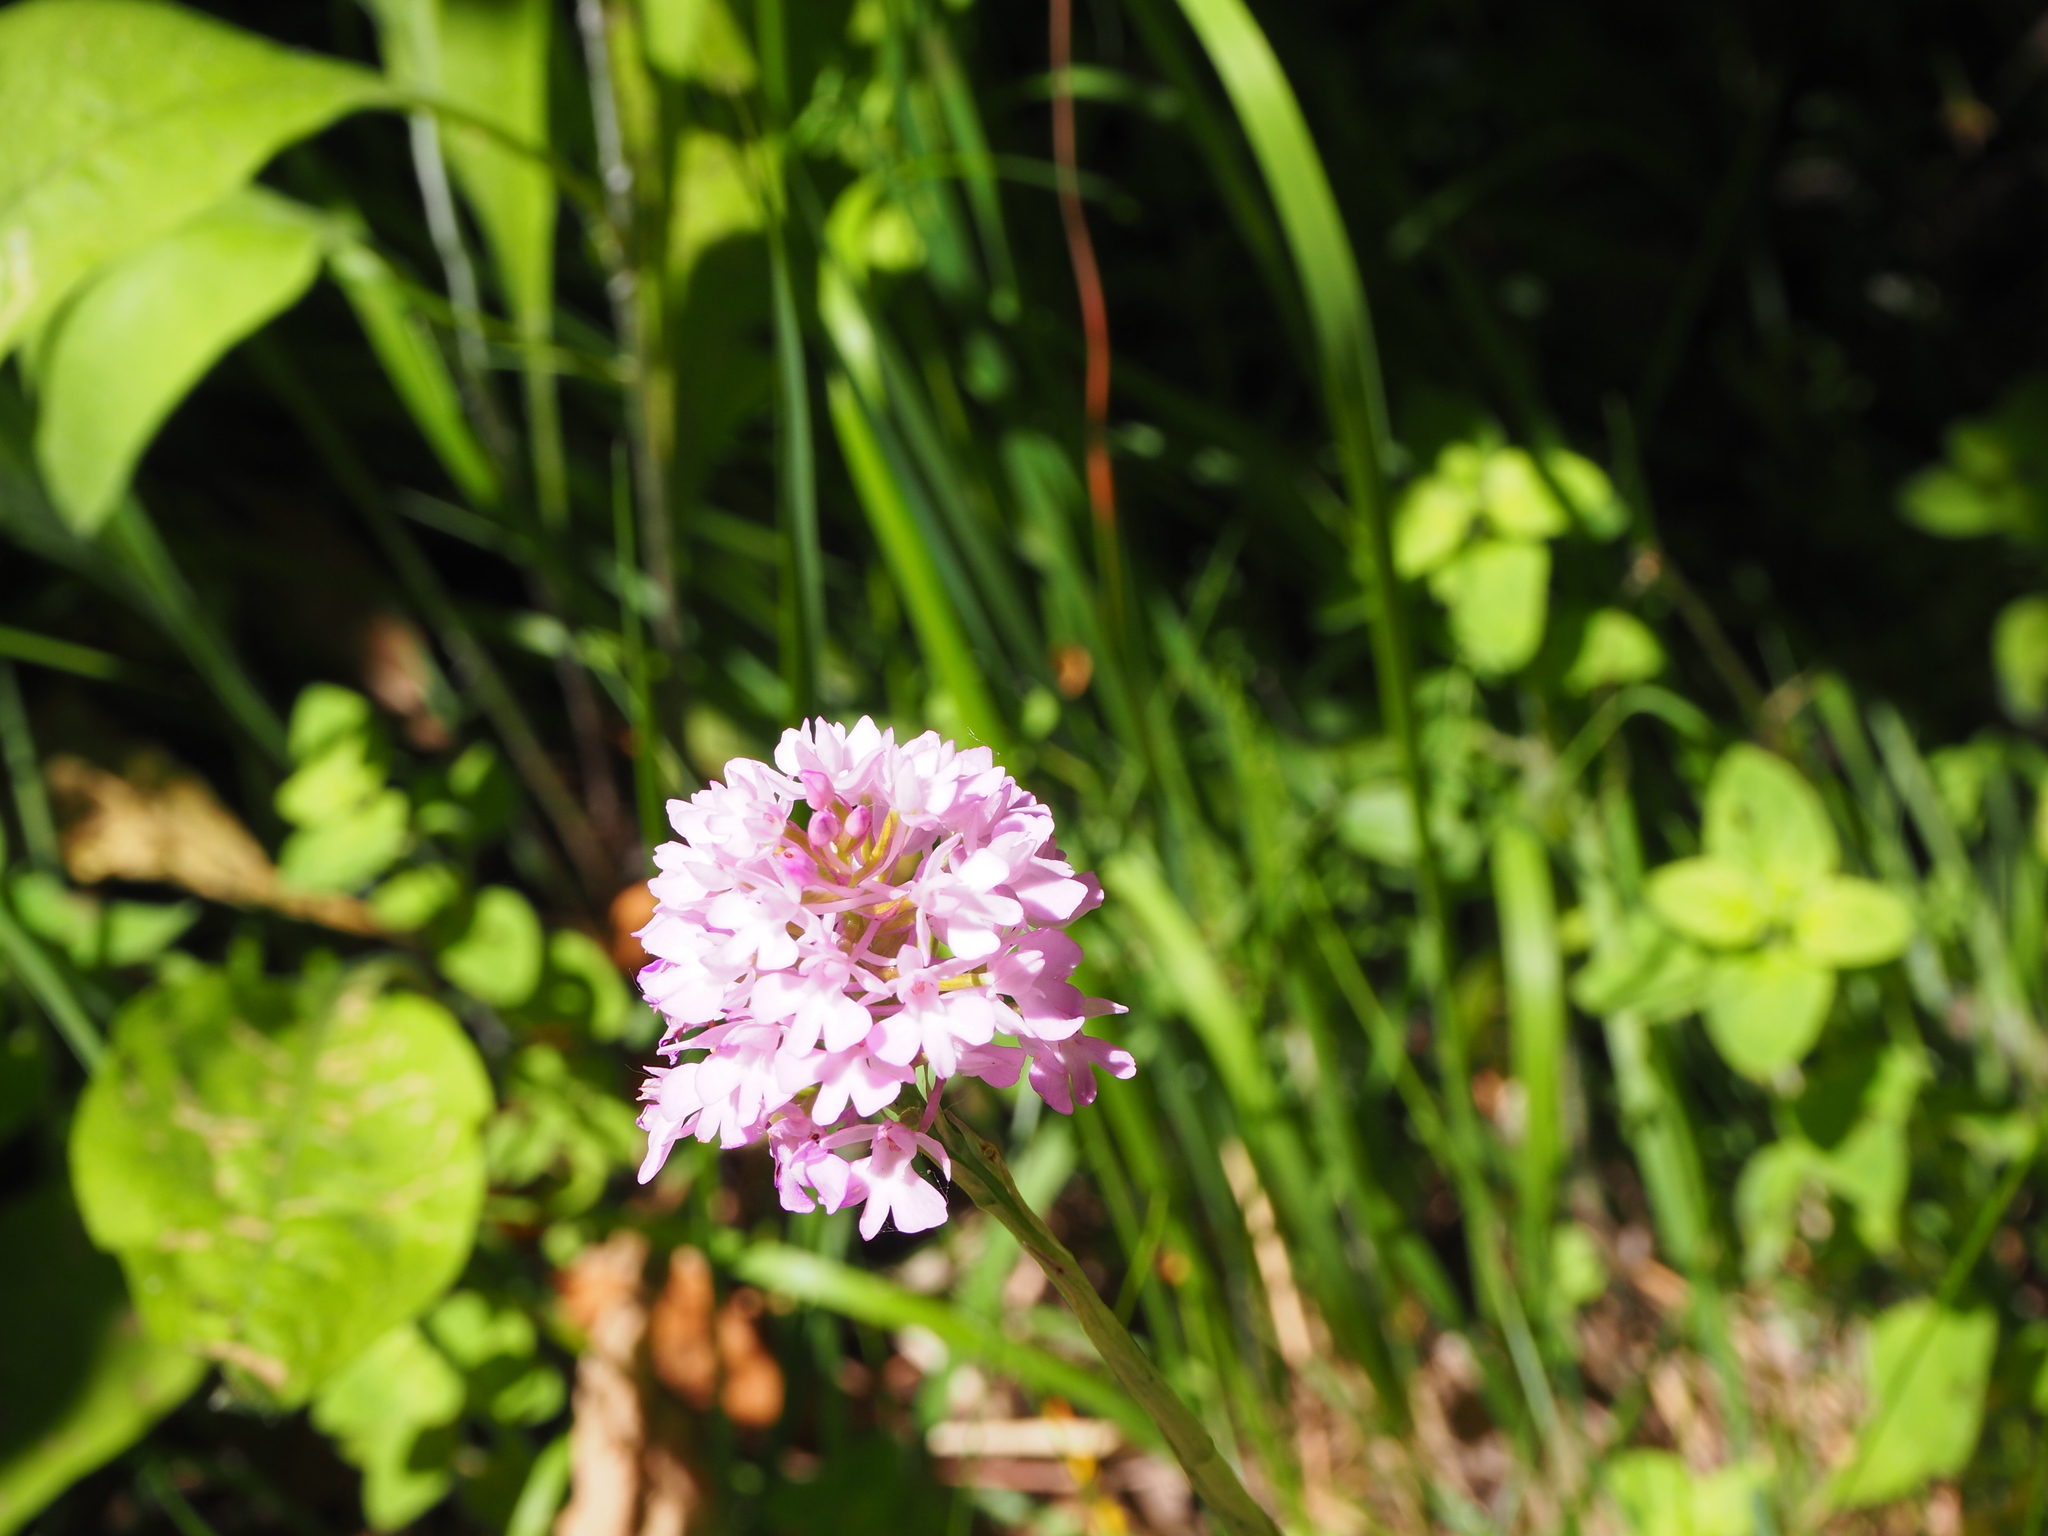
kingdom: Plantae
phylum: Tracheophyta
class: Liliopsida
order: Asparagales
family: Orchidaceae
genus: Anacamptis
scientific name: Anacamptis pyramidalis
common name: Pyramidal orchid
